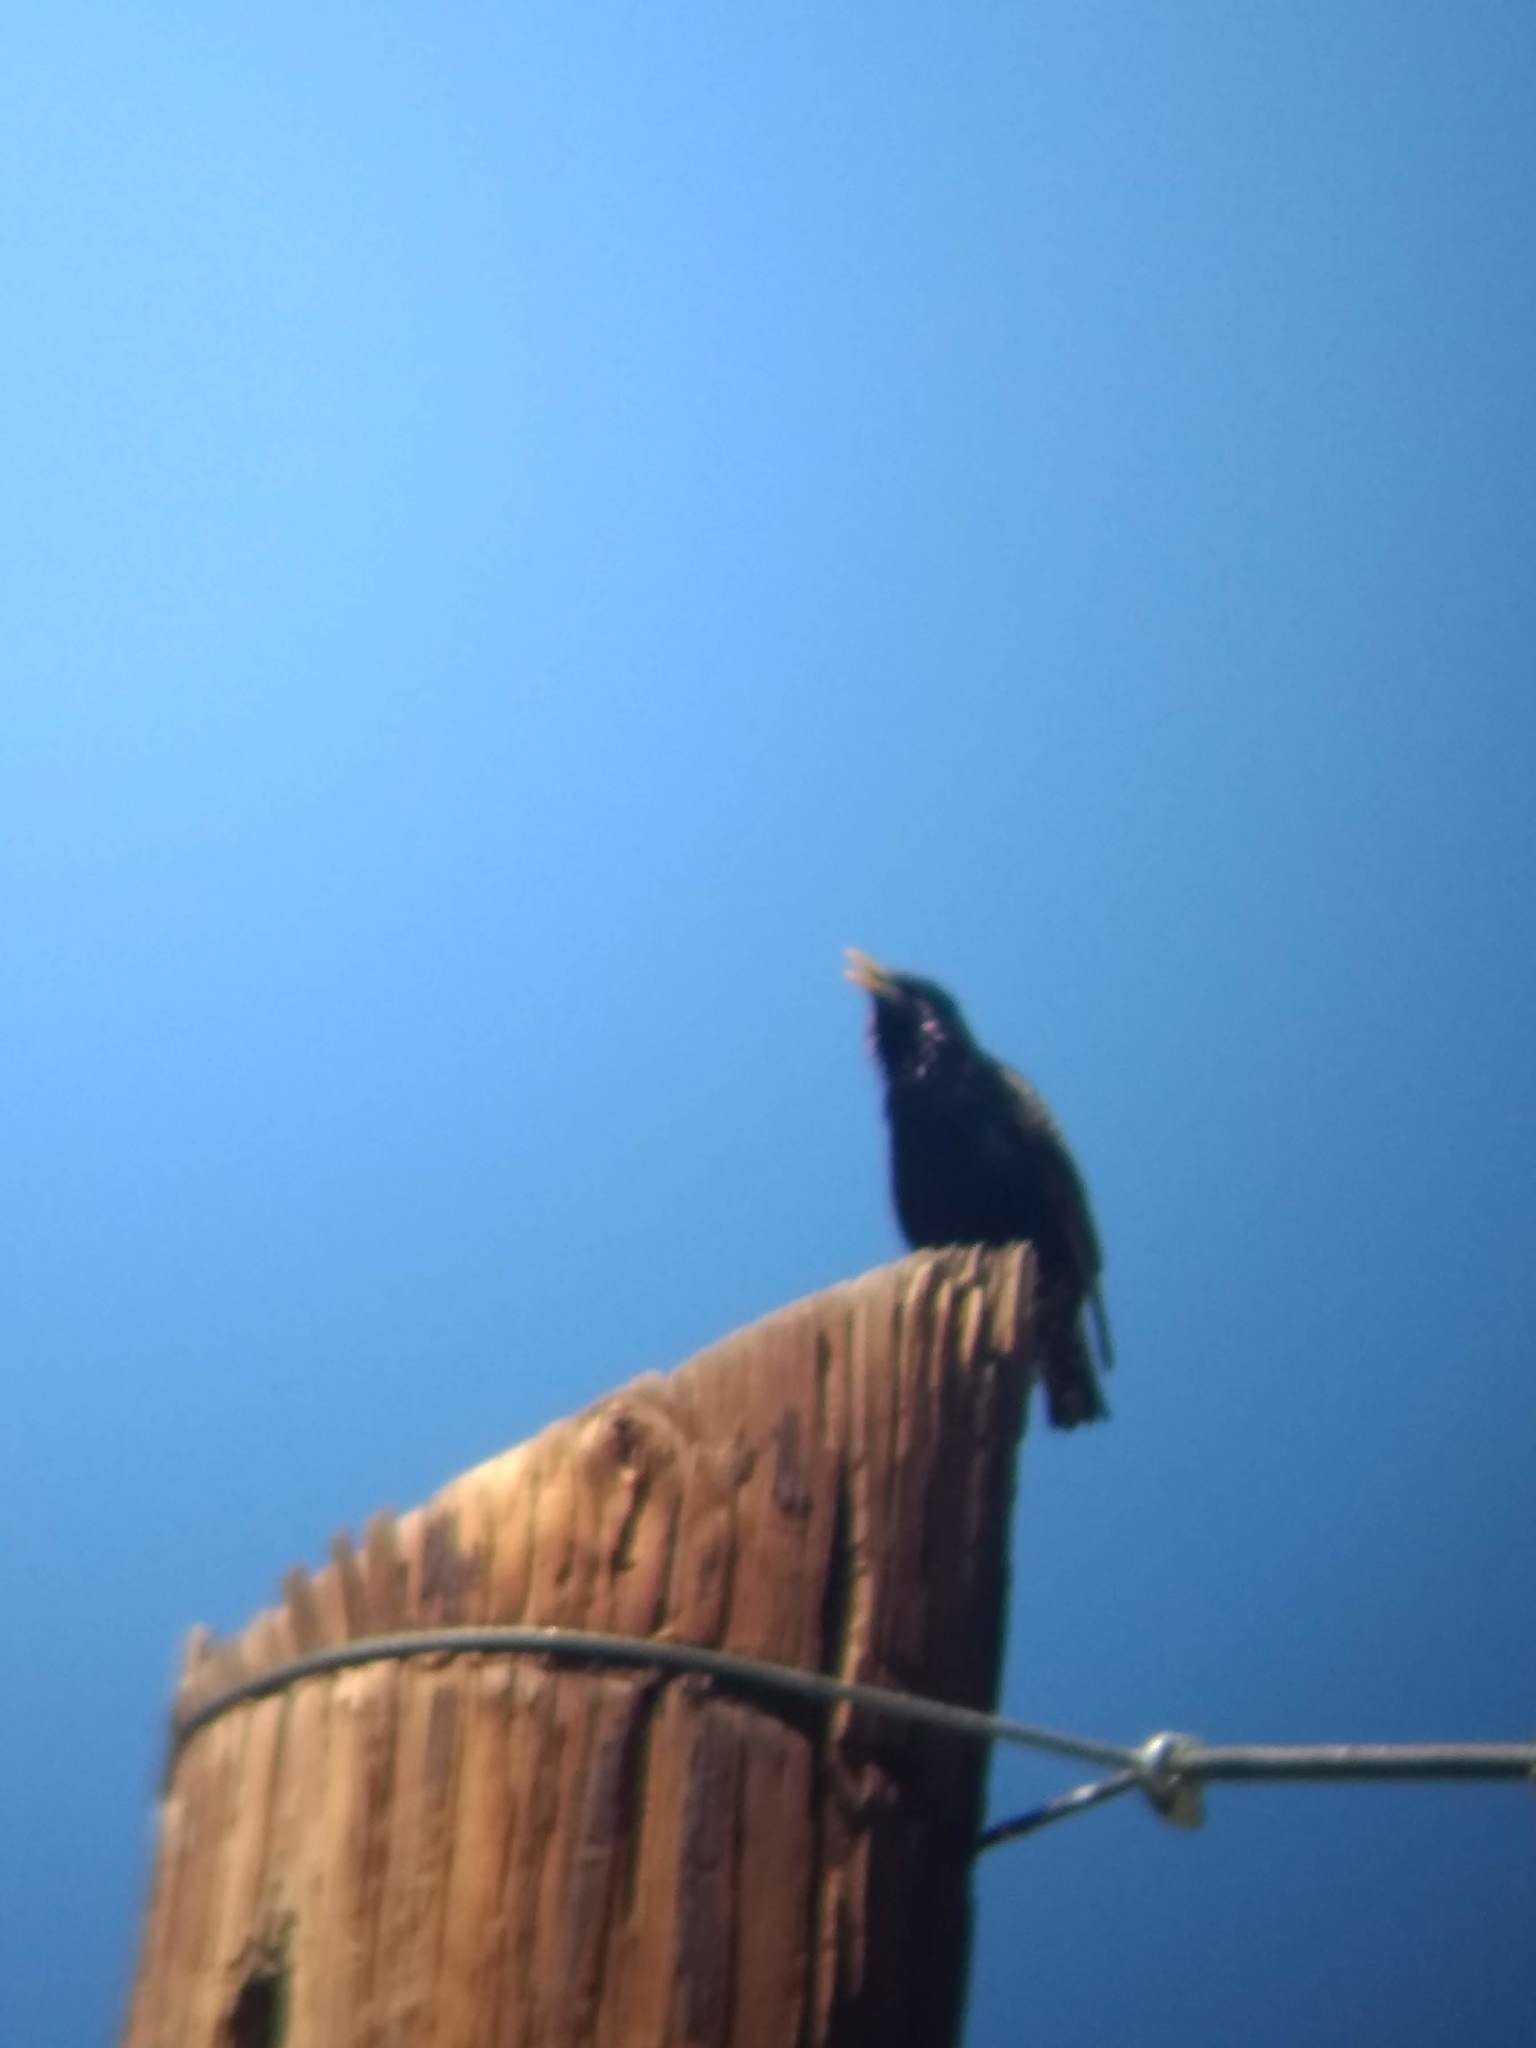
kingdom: Animalia
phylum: Chordata
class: Aves
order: Passeriformes
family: Sturnidae
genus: Sturnus
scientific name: Sturnus vulgaris
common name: Common starling
